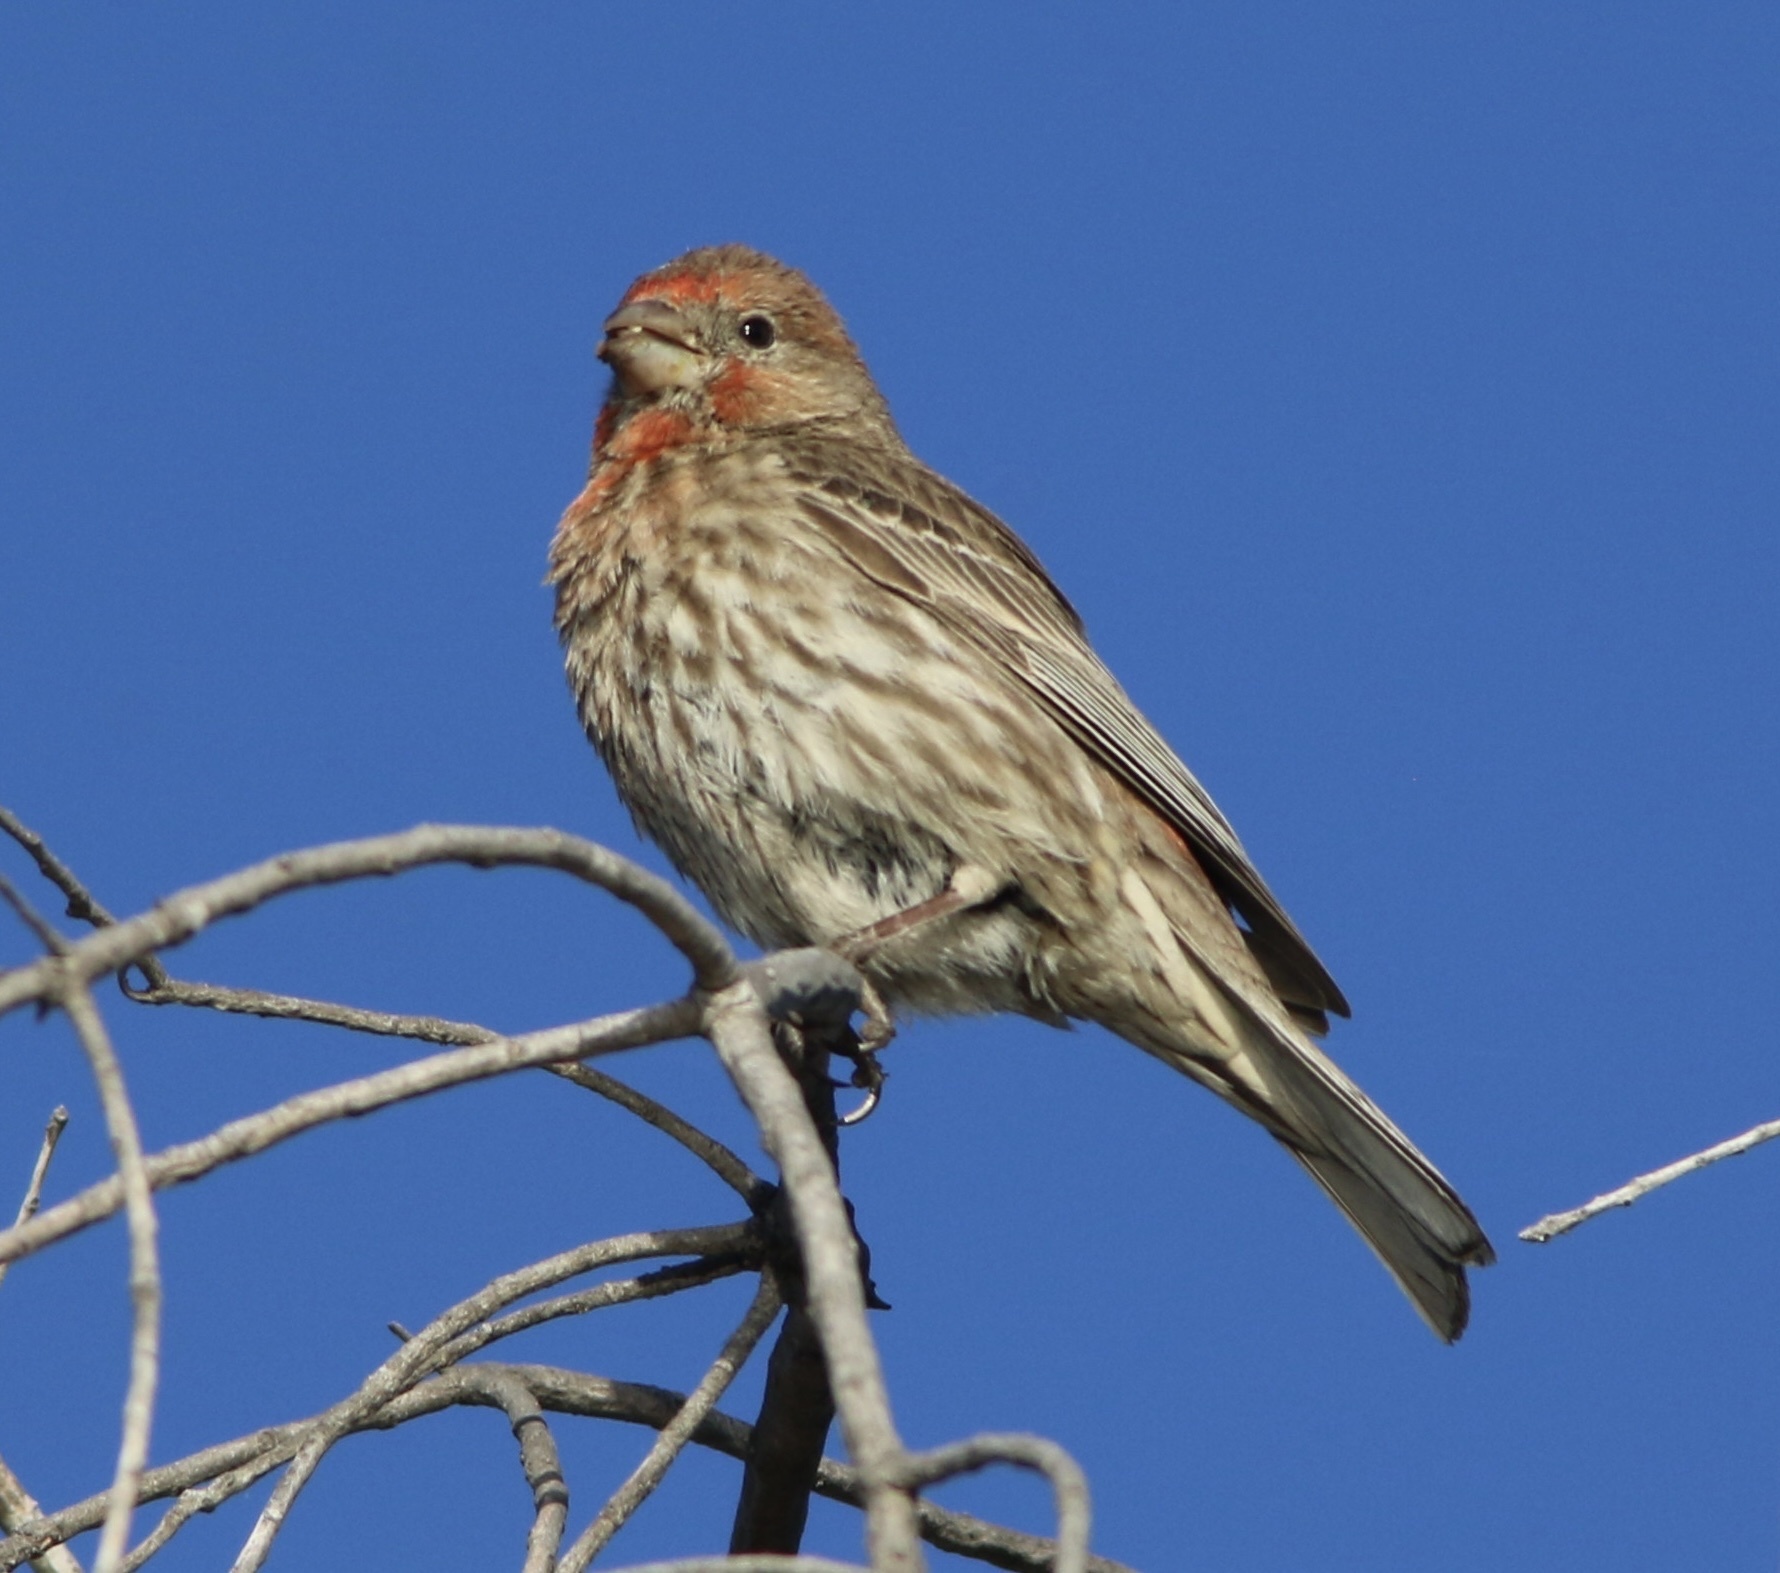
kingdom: Animalia
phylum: Chordata
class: Aves
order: Passeriformes
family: Fringillidae
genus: Haemorhous
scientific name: Haemorhous mexicanus
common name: House finch
